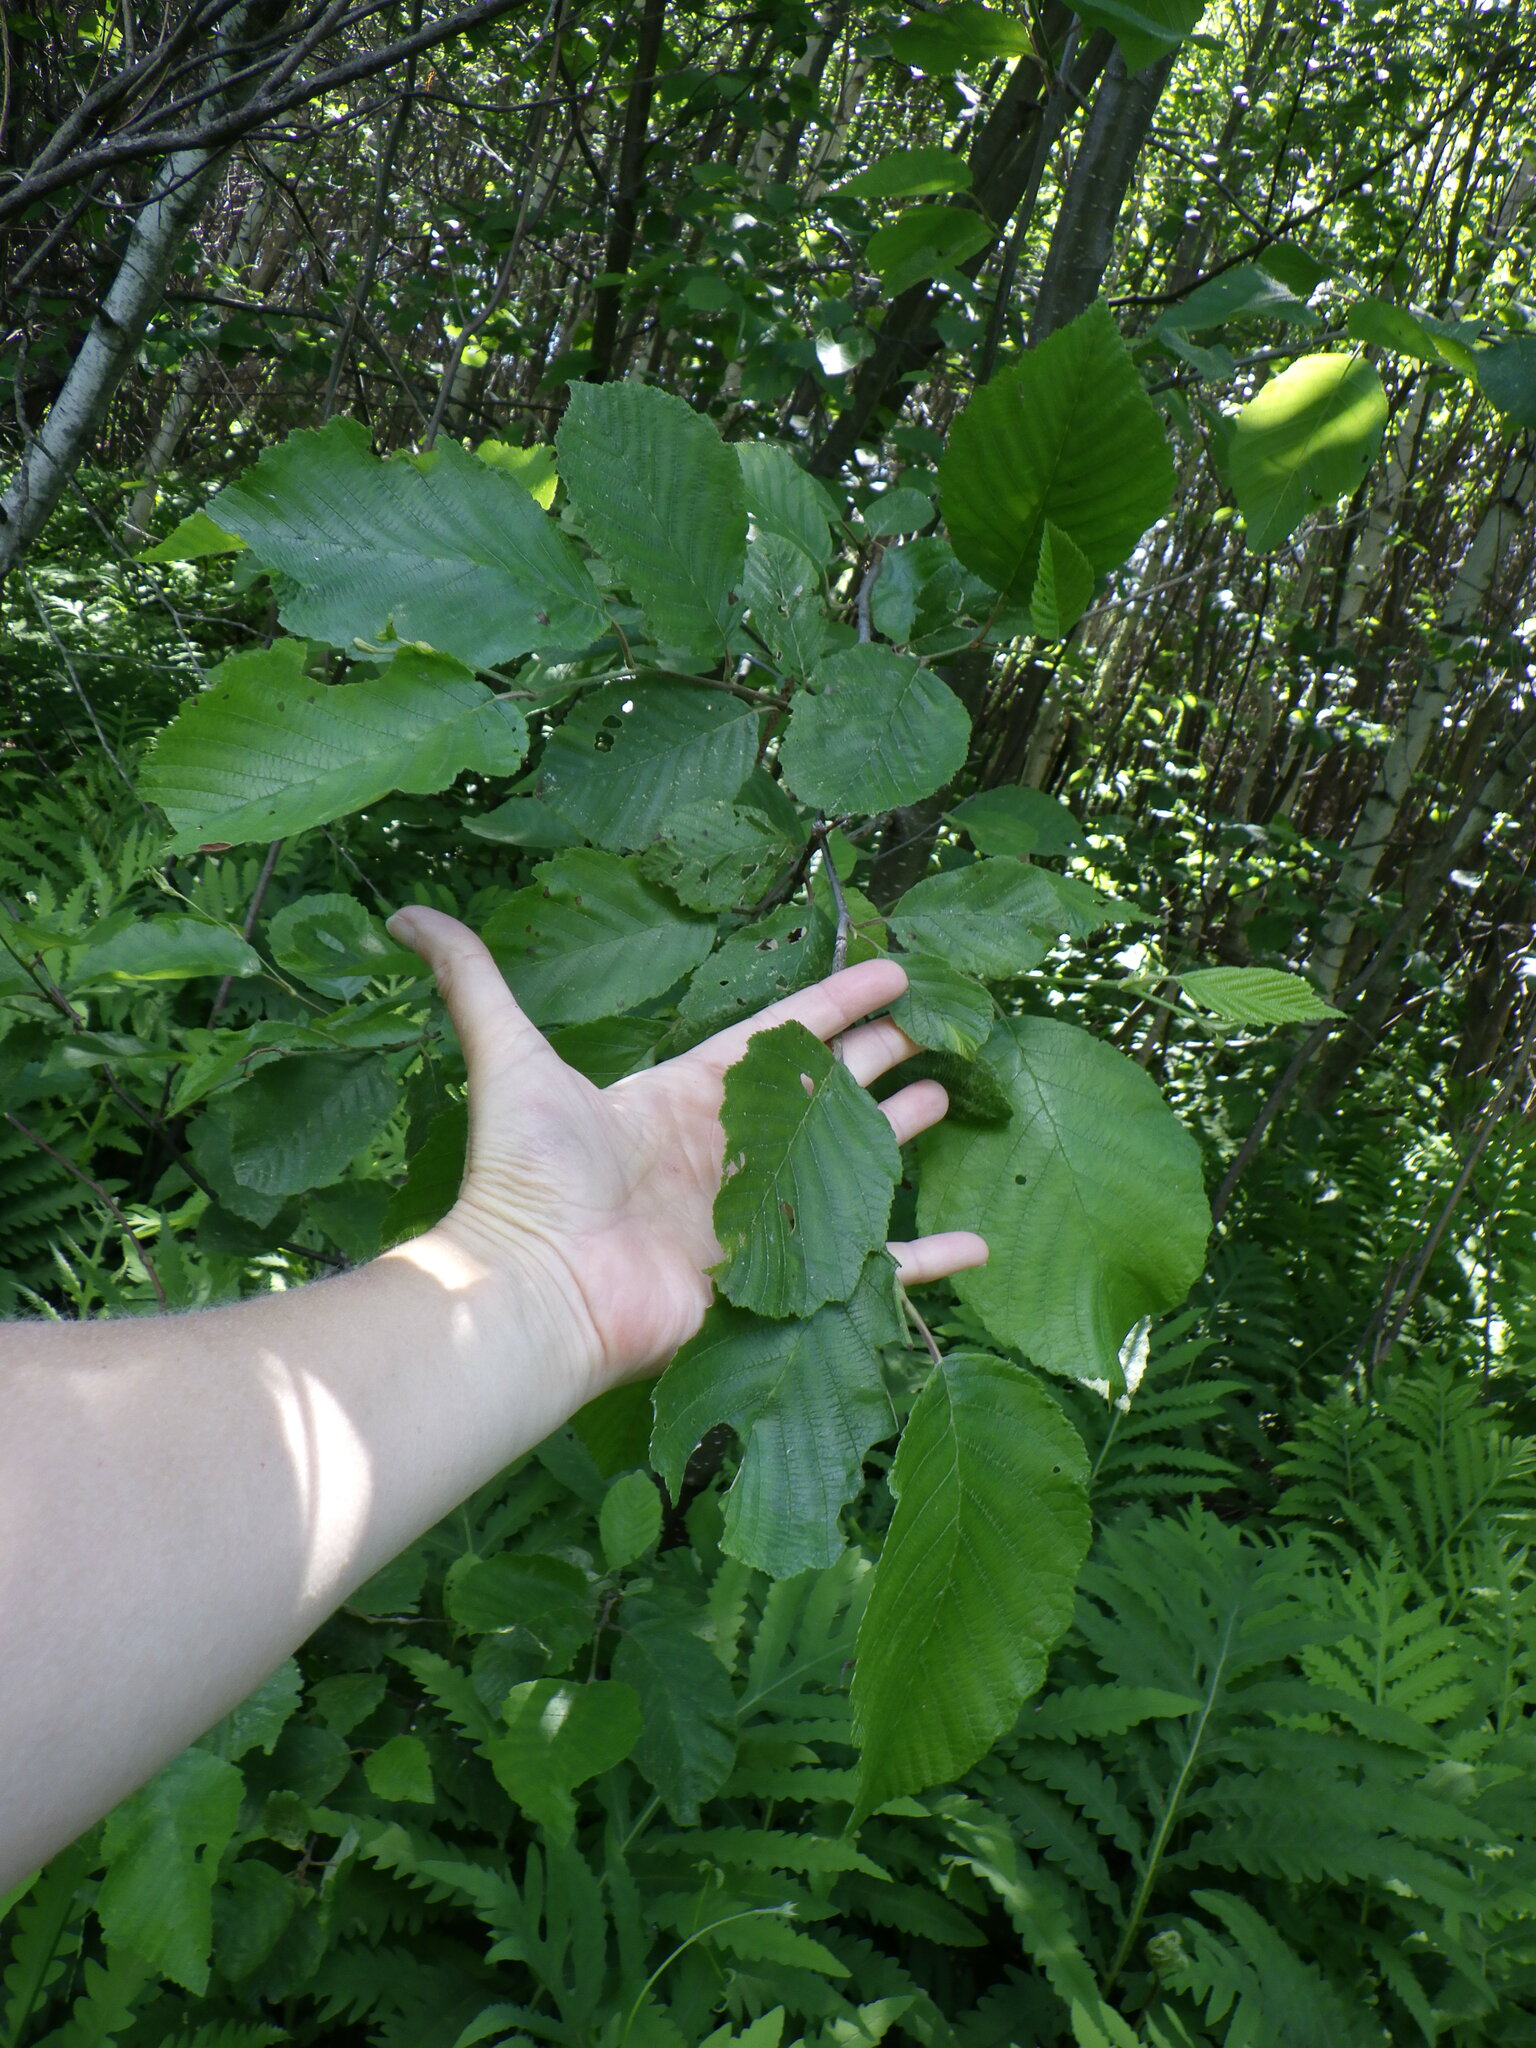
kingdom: Plantae
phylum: Tracheophyta
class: Magnoliopsida
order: Fagales
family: Betulaceae
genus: Alnus
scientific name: Alnus incana
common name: Grey alder
